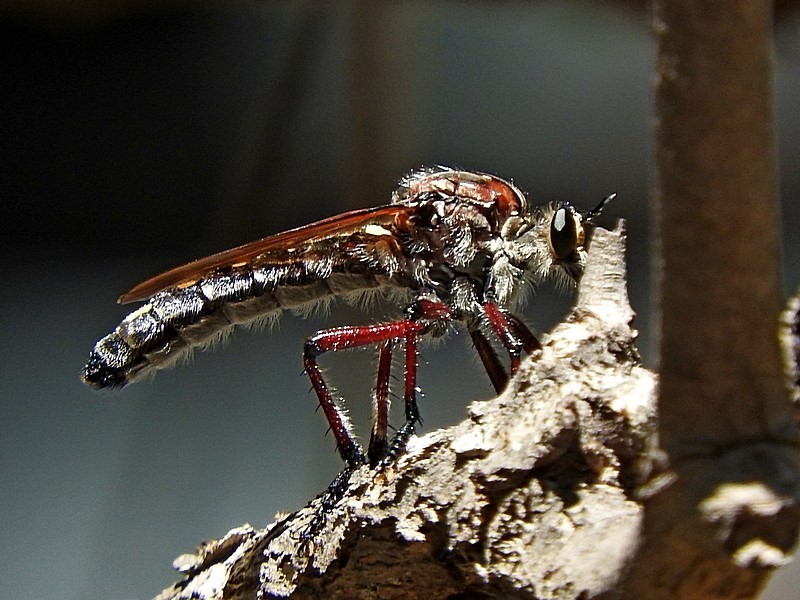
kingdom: Animalia
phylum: Arthropoda
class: Insecta
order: Diptera
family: Asilidae
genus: Chrysopogon
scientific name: Chrysopogon muelleri
